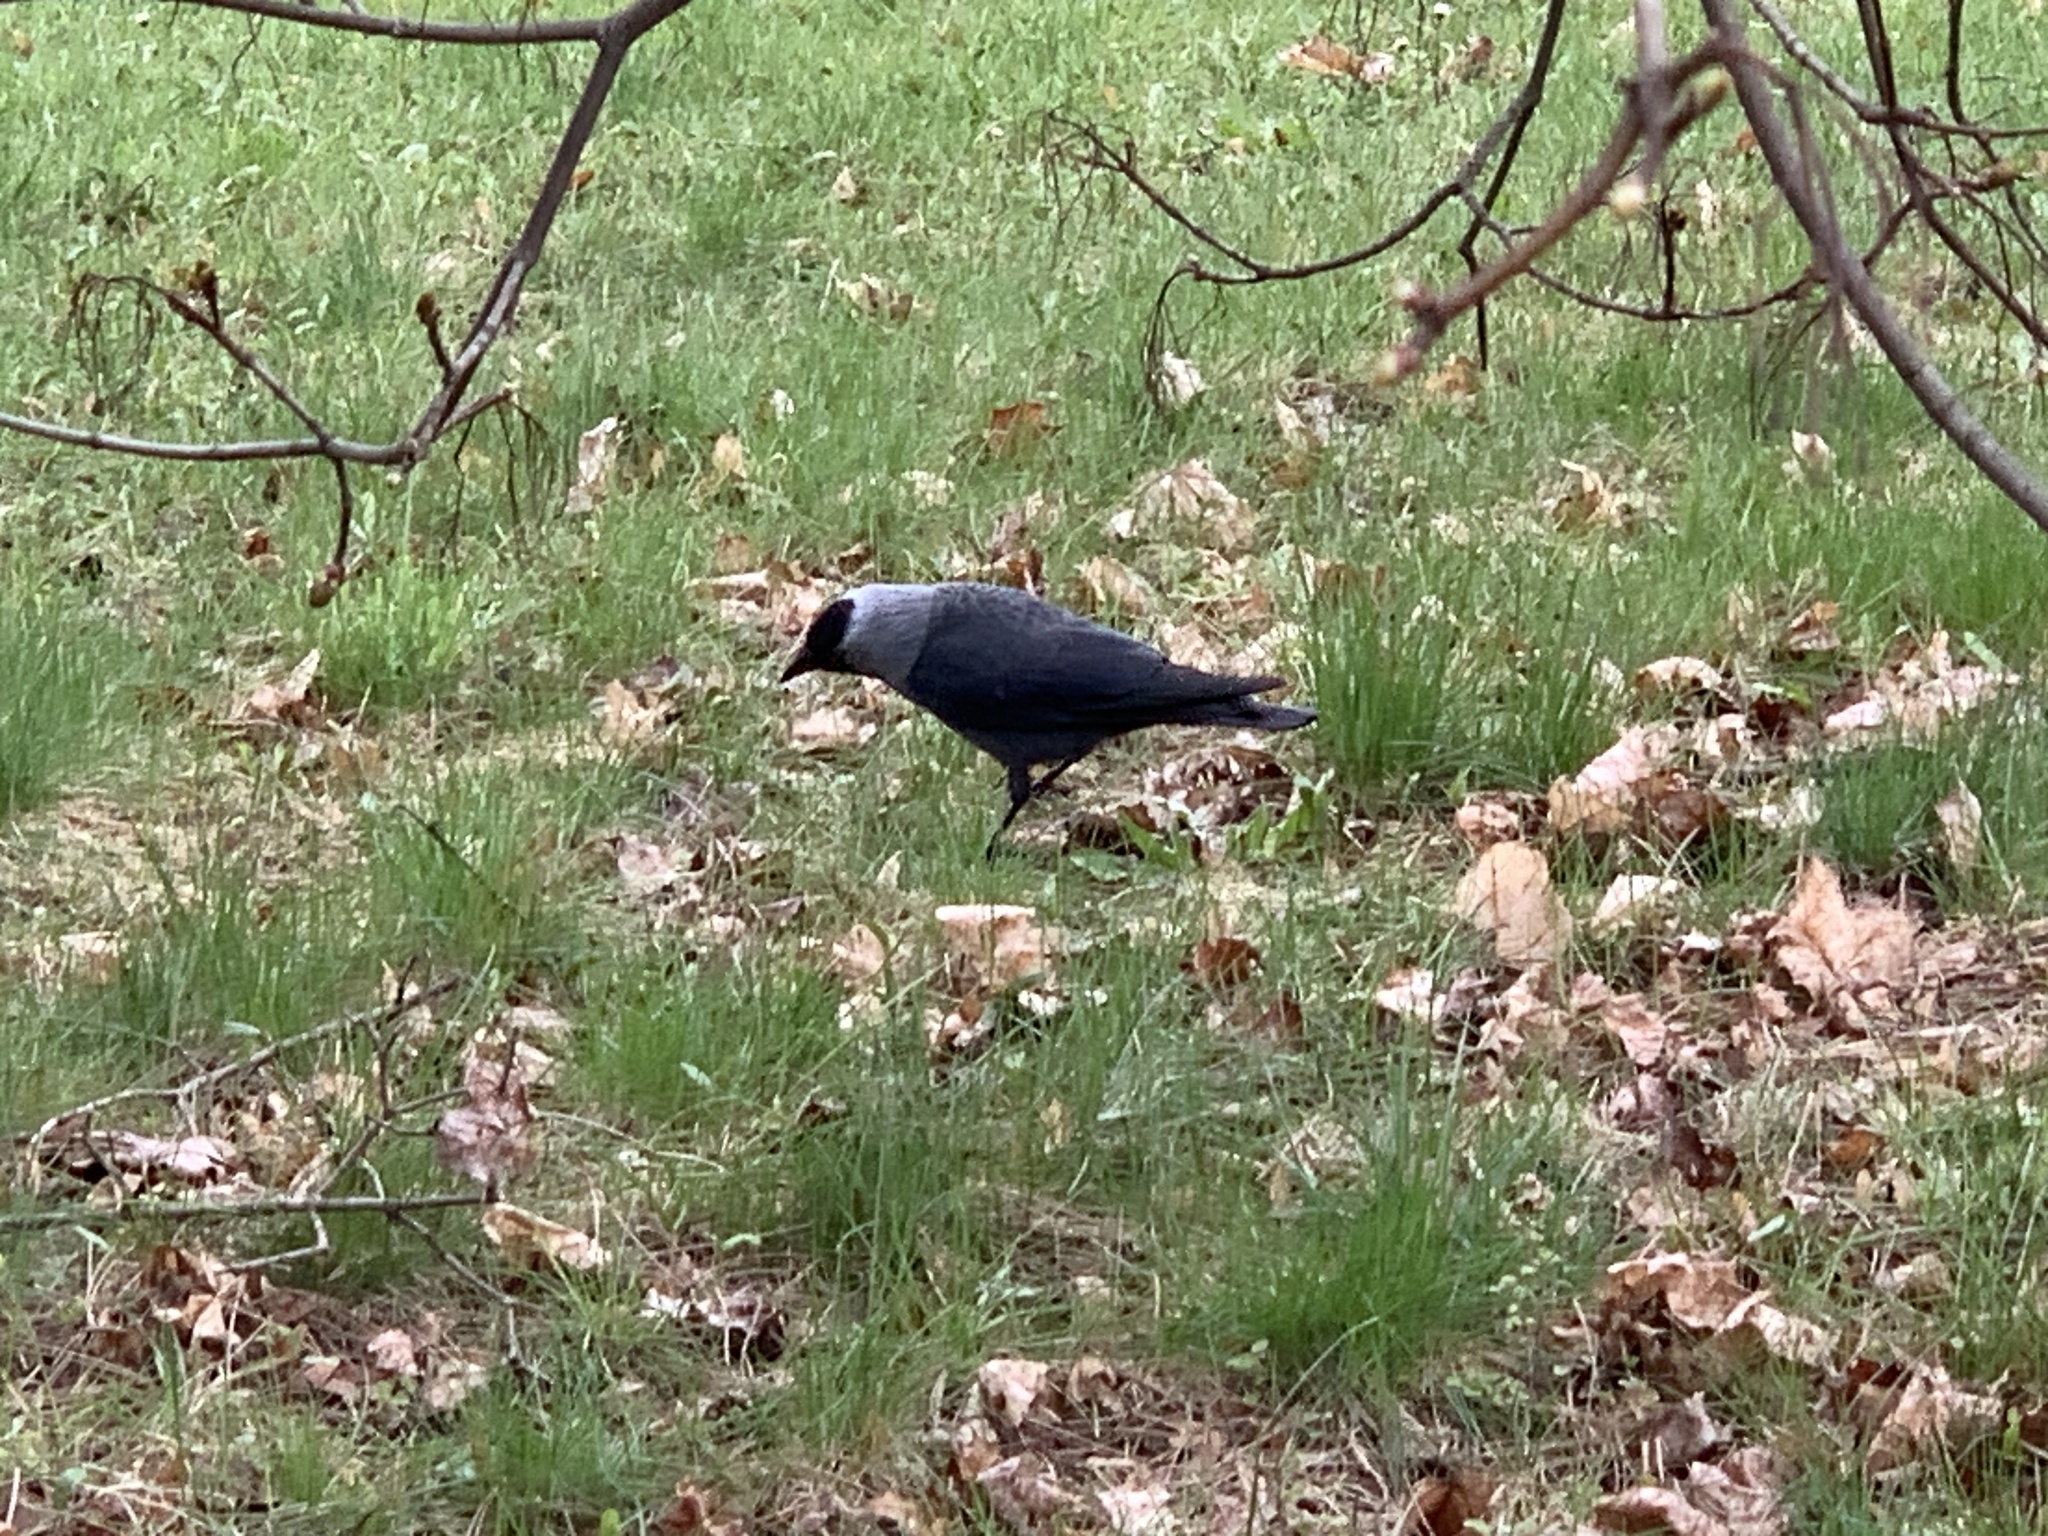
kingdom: Animalia
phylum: Chordata
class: Aves
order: Passeriformes
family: Corvidae
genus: Coloeus
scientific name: Coloeus monedula
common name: Western jackdaw
